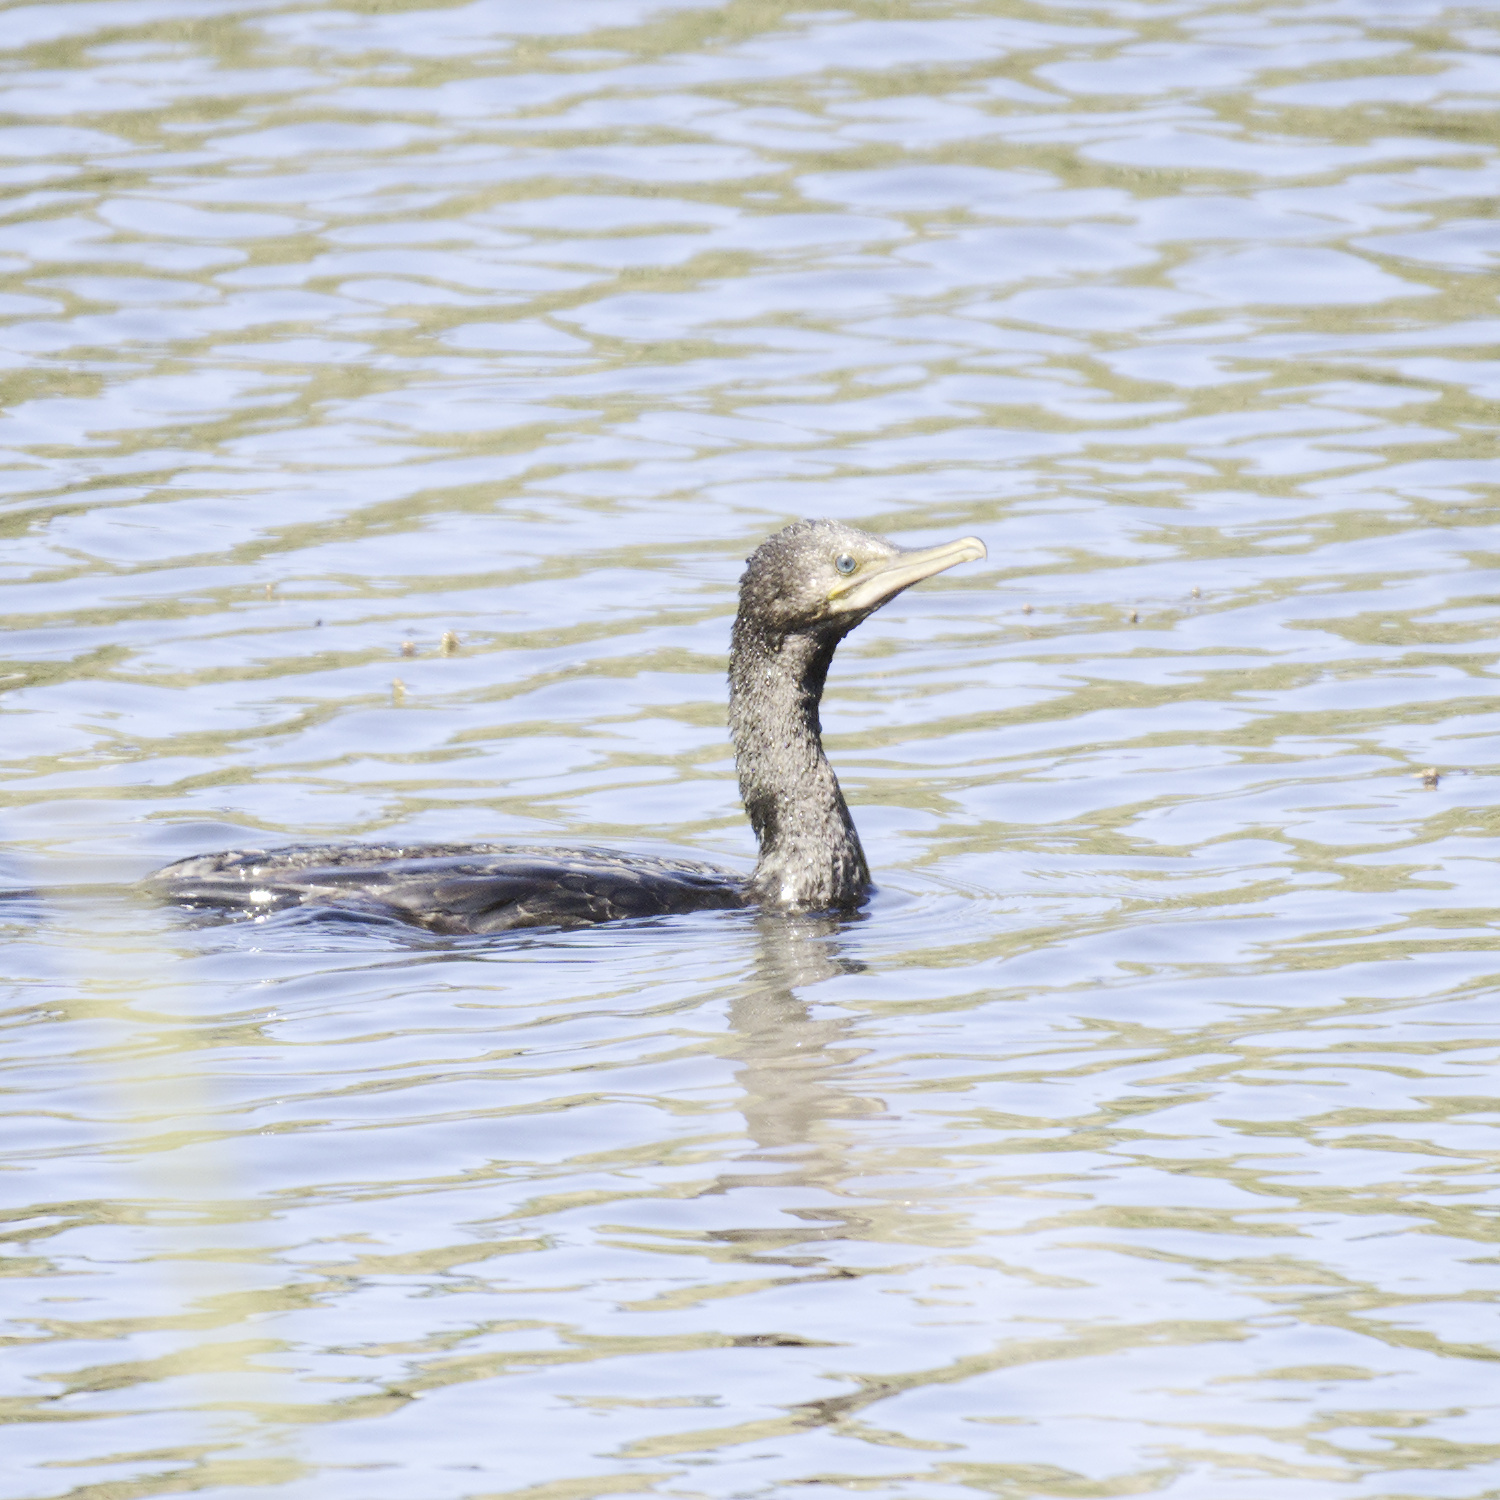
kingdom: Animalia
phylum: Chordata
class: Aves
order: Suliformes
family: Phalacrocoracidae
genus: Phalacrocorax
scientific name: Phalacrocorax sulcirostris
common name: Little black cormorant
